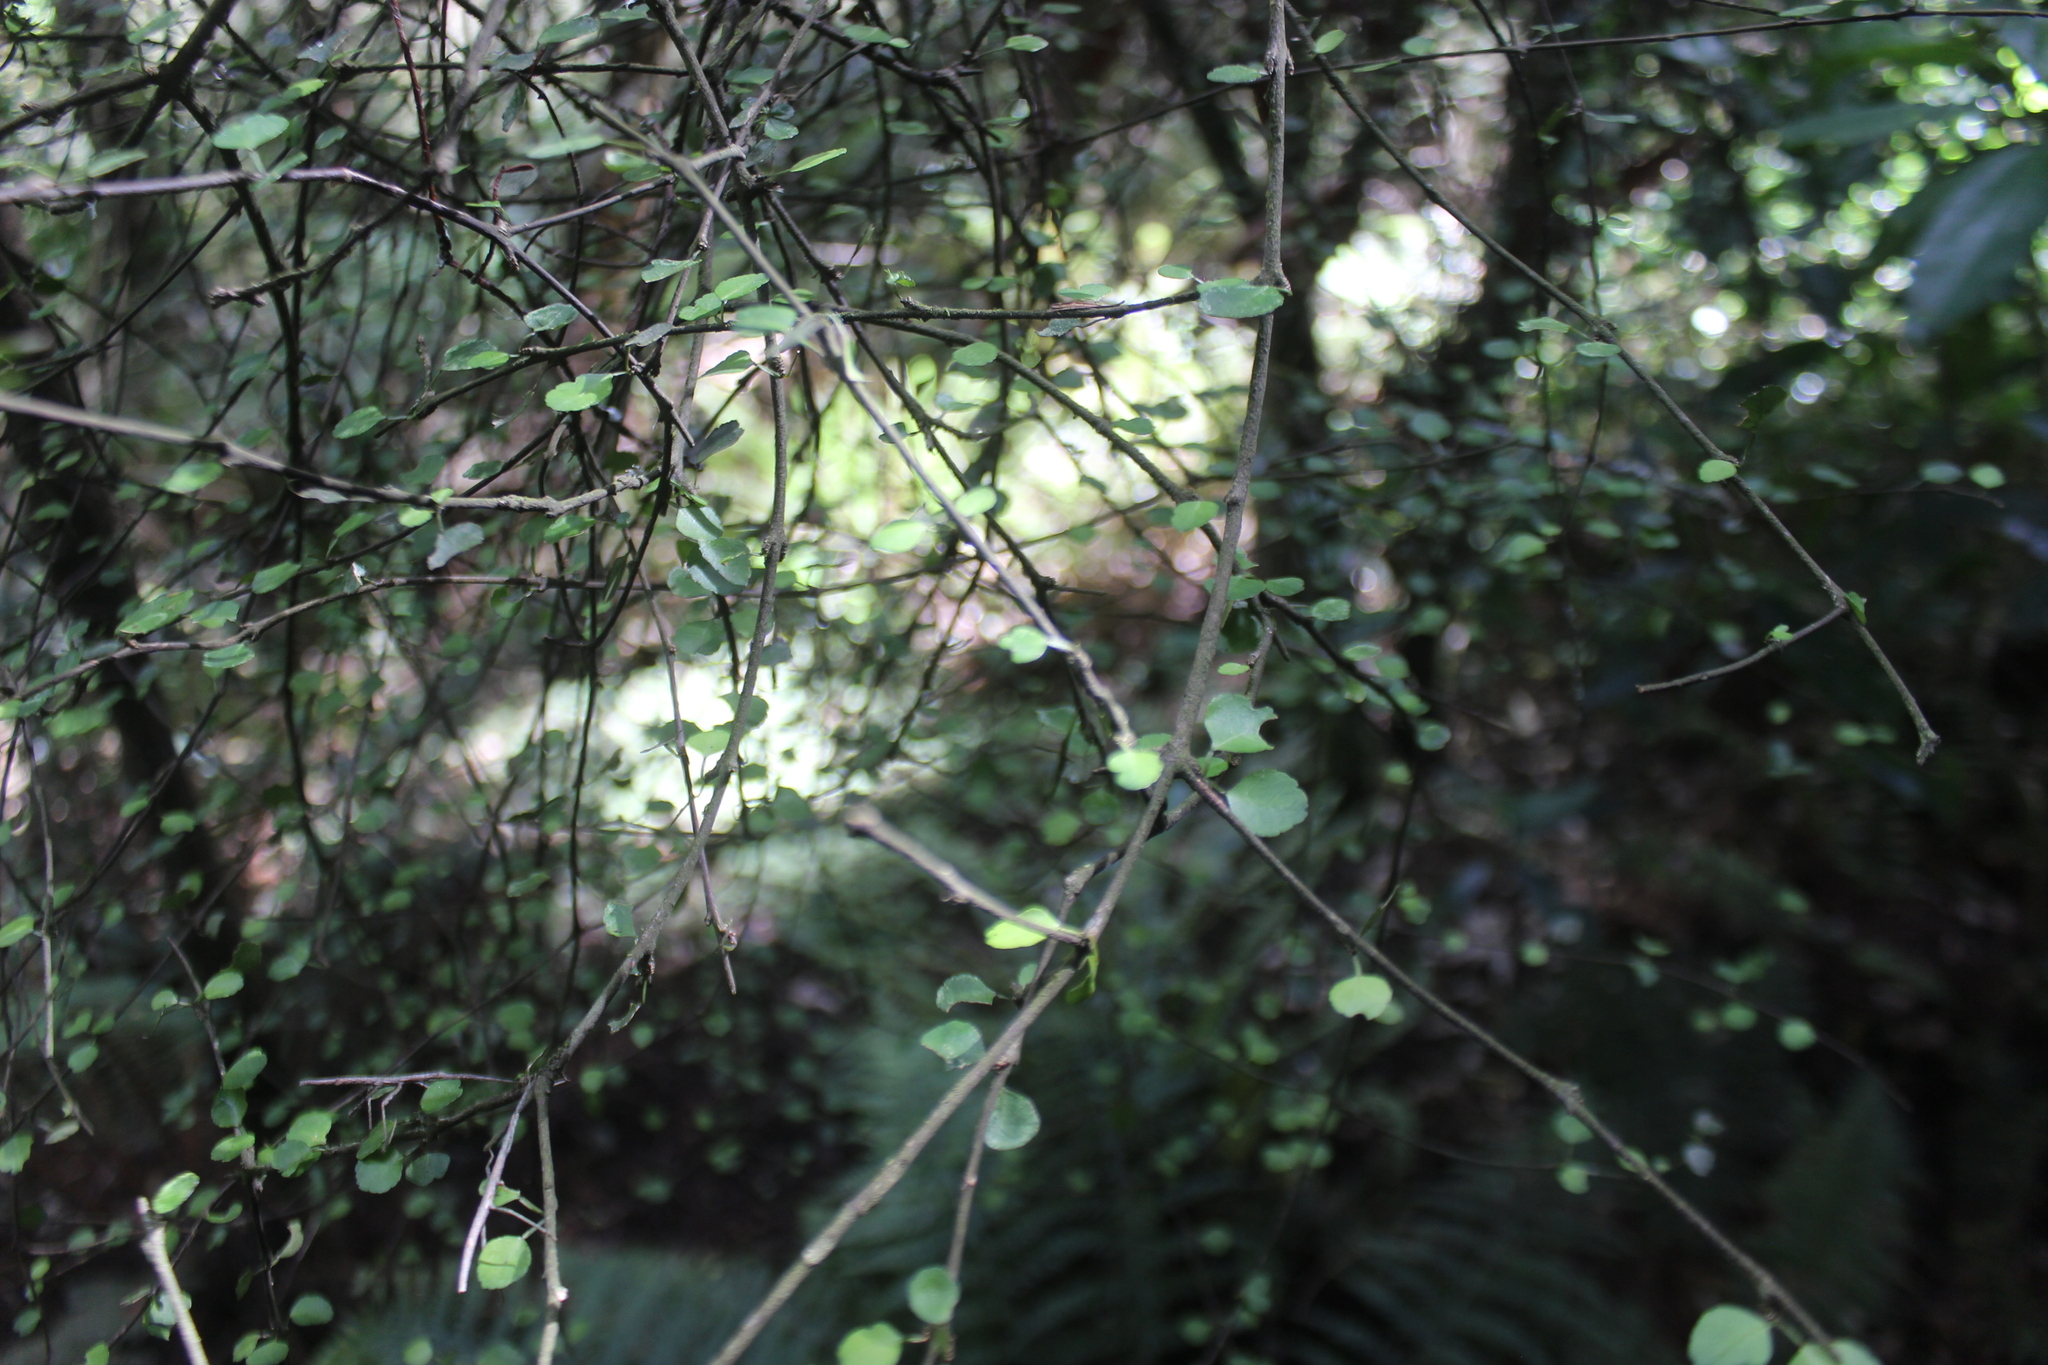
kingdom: Plantae
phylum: Tracheophyta
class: Magnoliopsida
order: Sapindales
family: Rutaceae
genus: Melicope
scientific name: Melicope simplex
